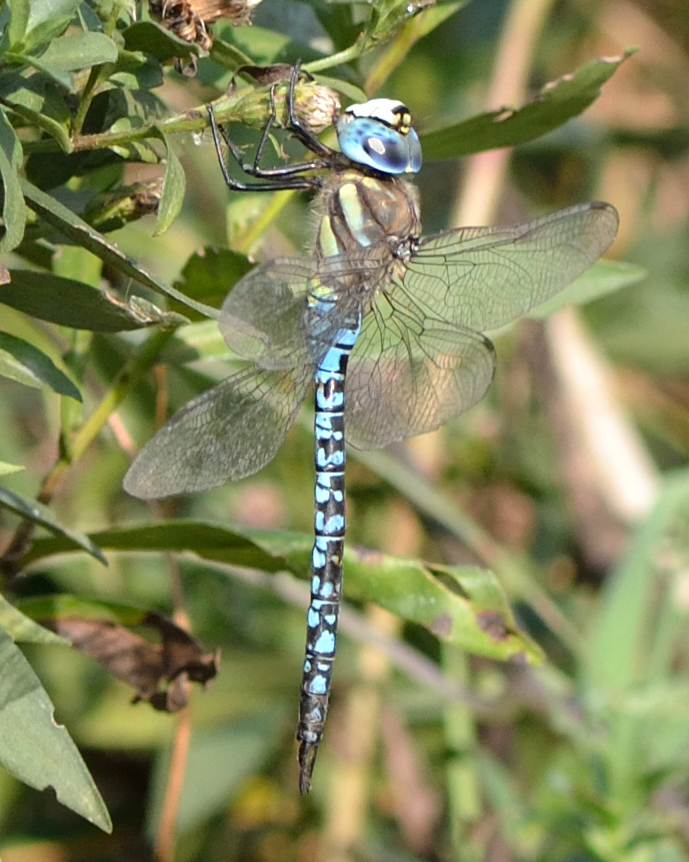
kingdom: Animalia
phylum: Arthropoda
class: Insecta
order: Odonata
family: Aeshnidae
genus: Aeshna
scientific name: Aeshna soneharai
